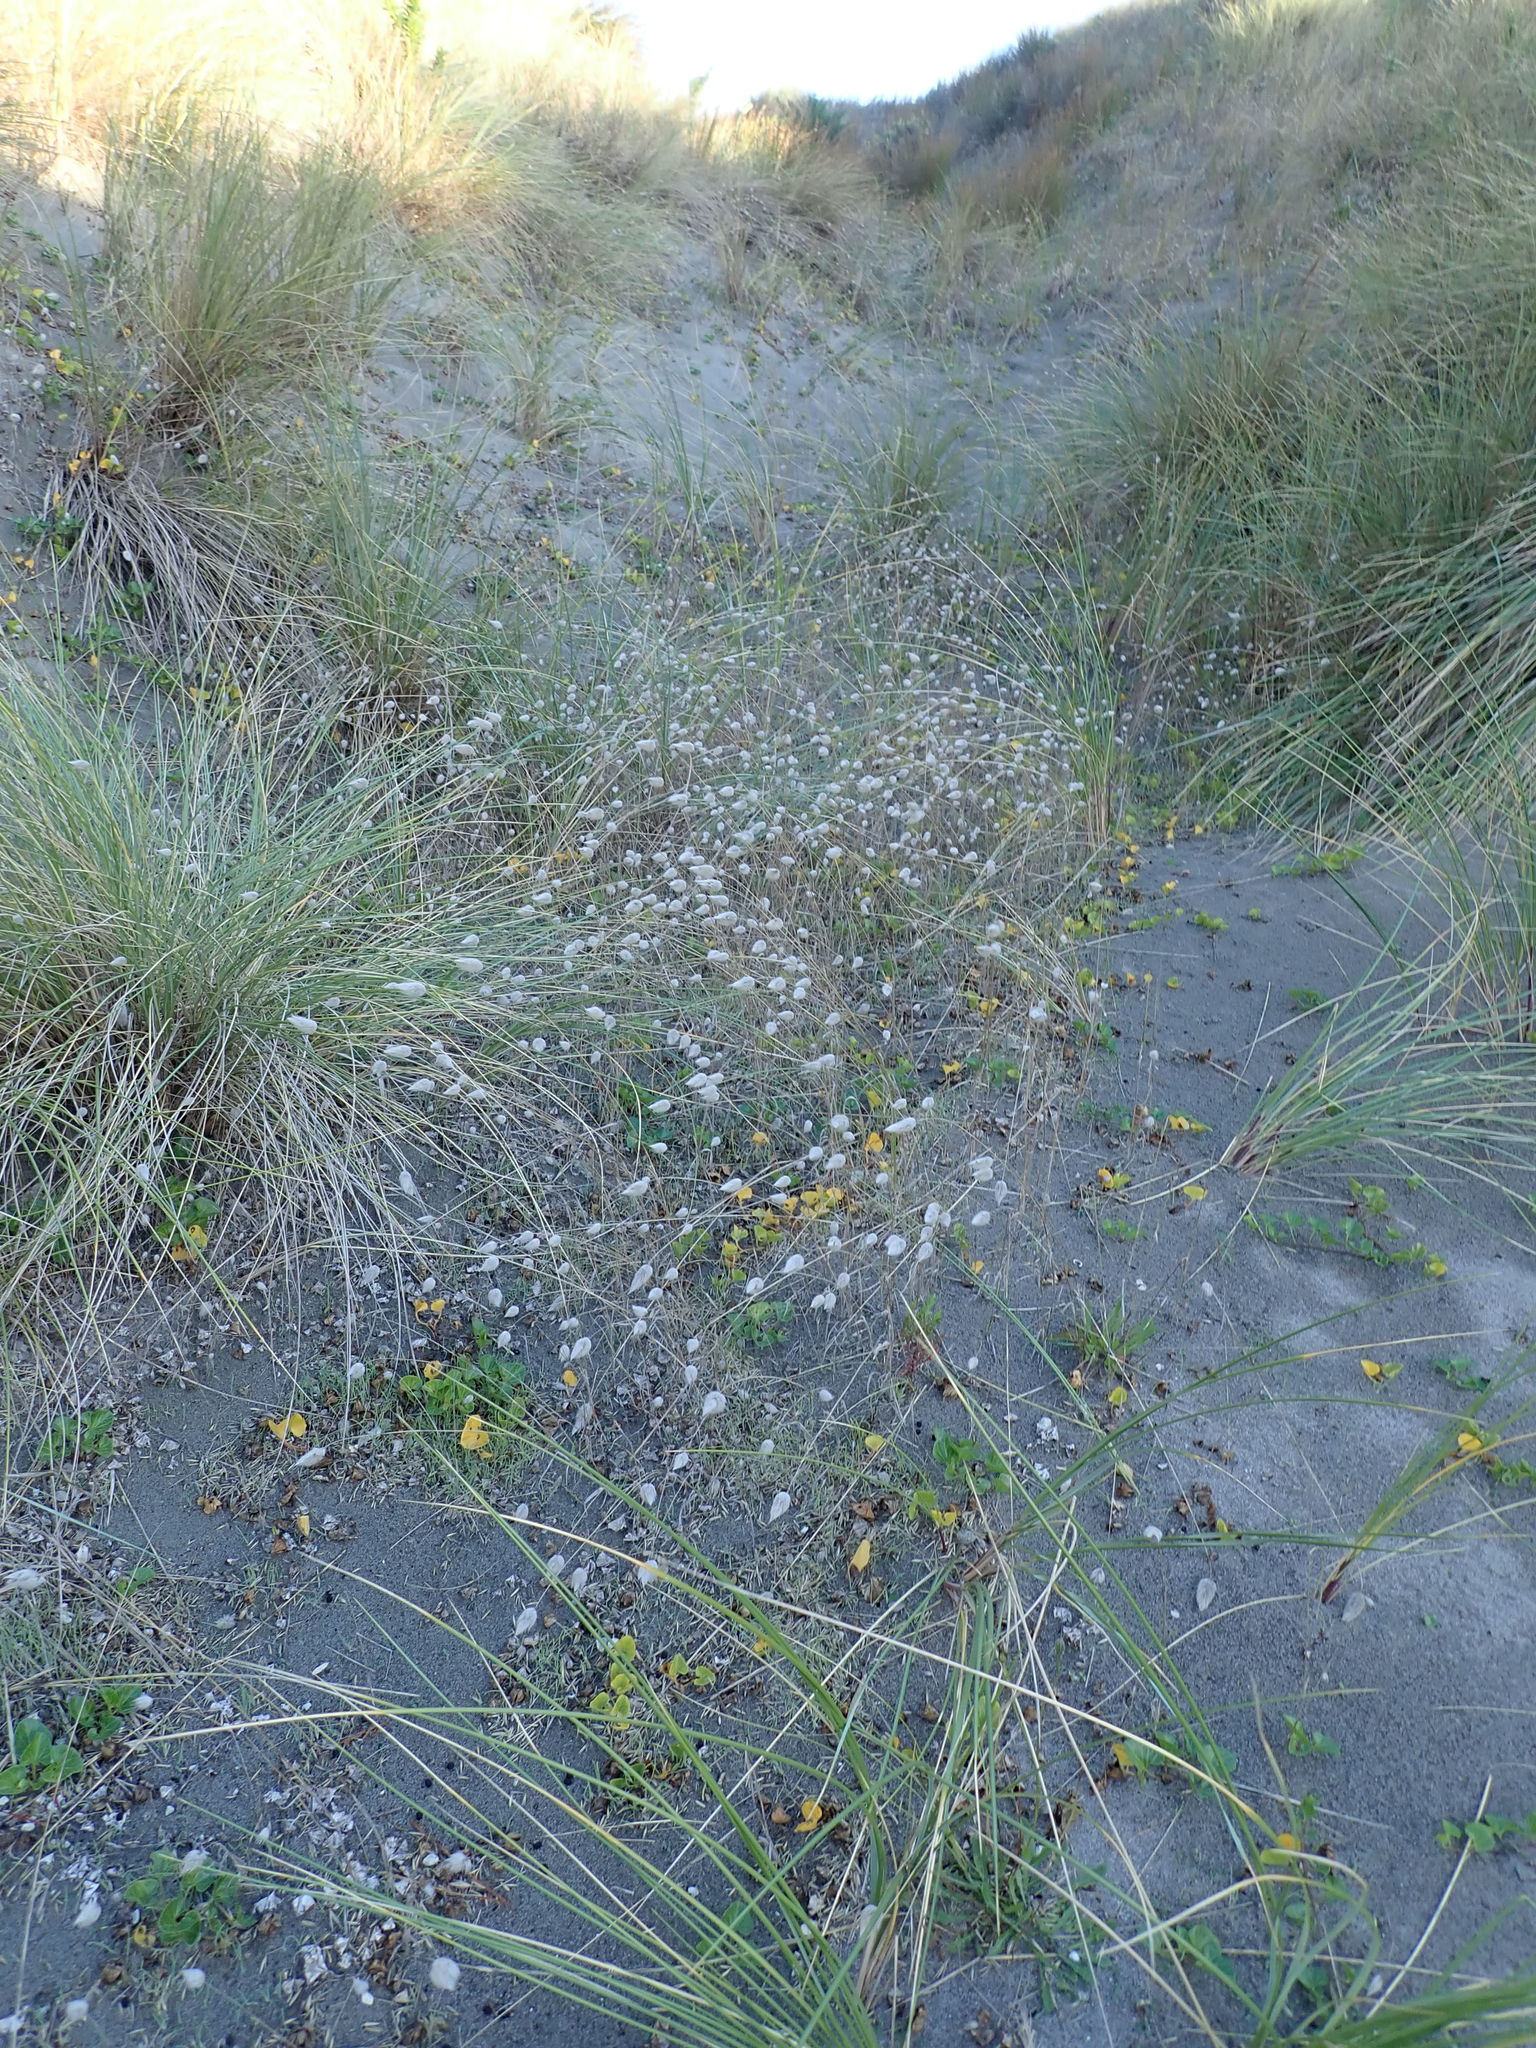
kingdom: Plantae
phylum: Tracheophyta
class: Liliopsida
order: Poales
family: Poaceae
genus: Lagurus
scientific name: Lagurus ovatus
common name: Hare's-tail
